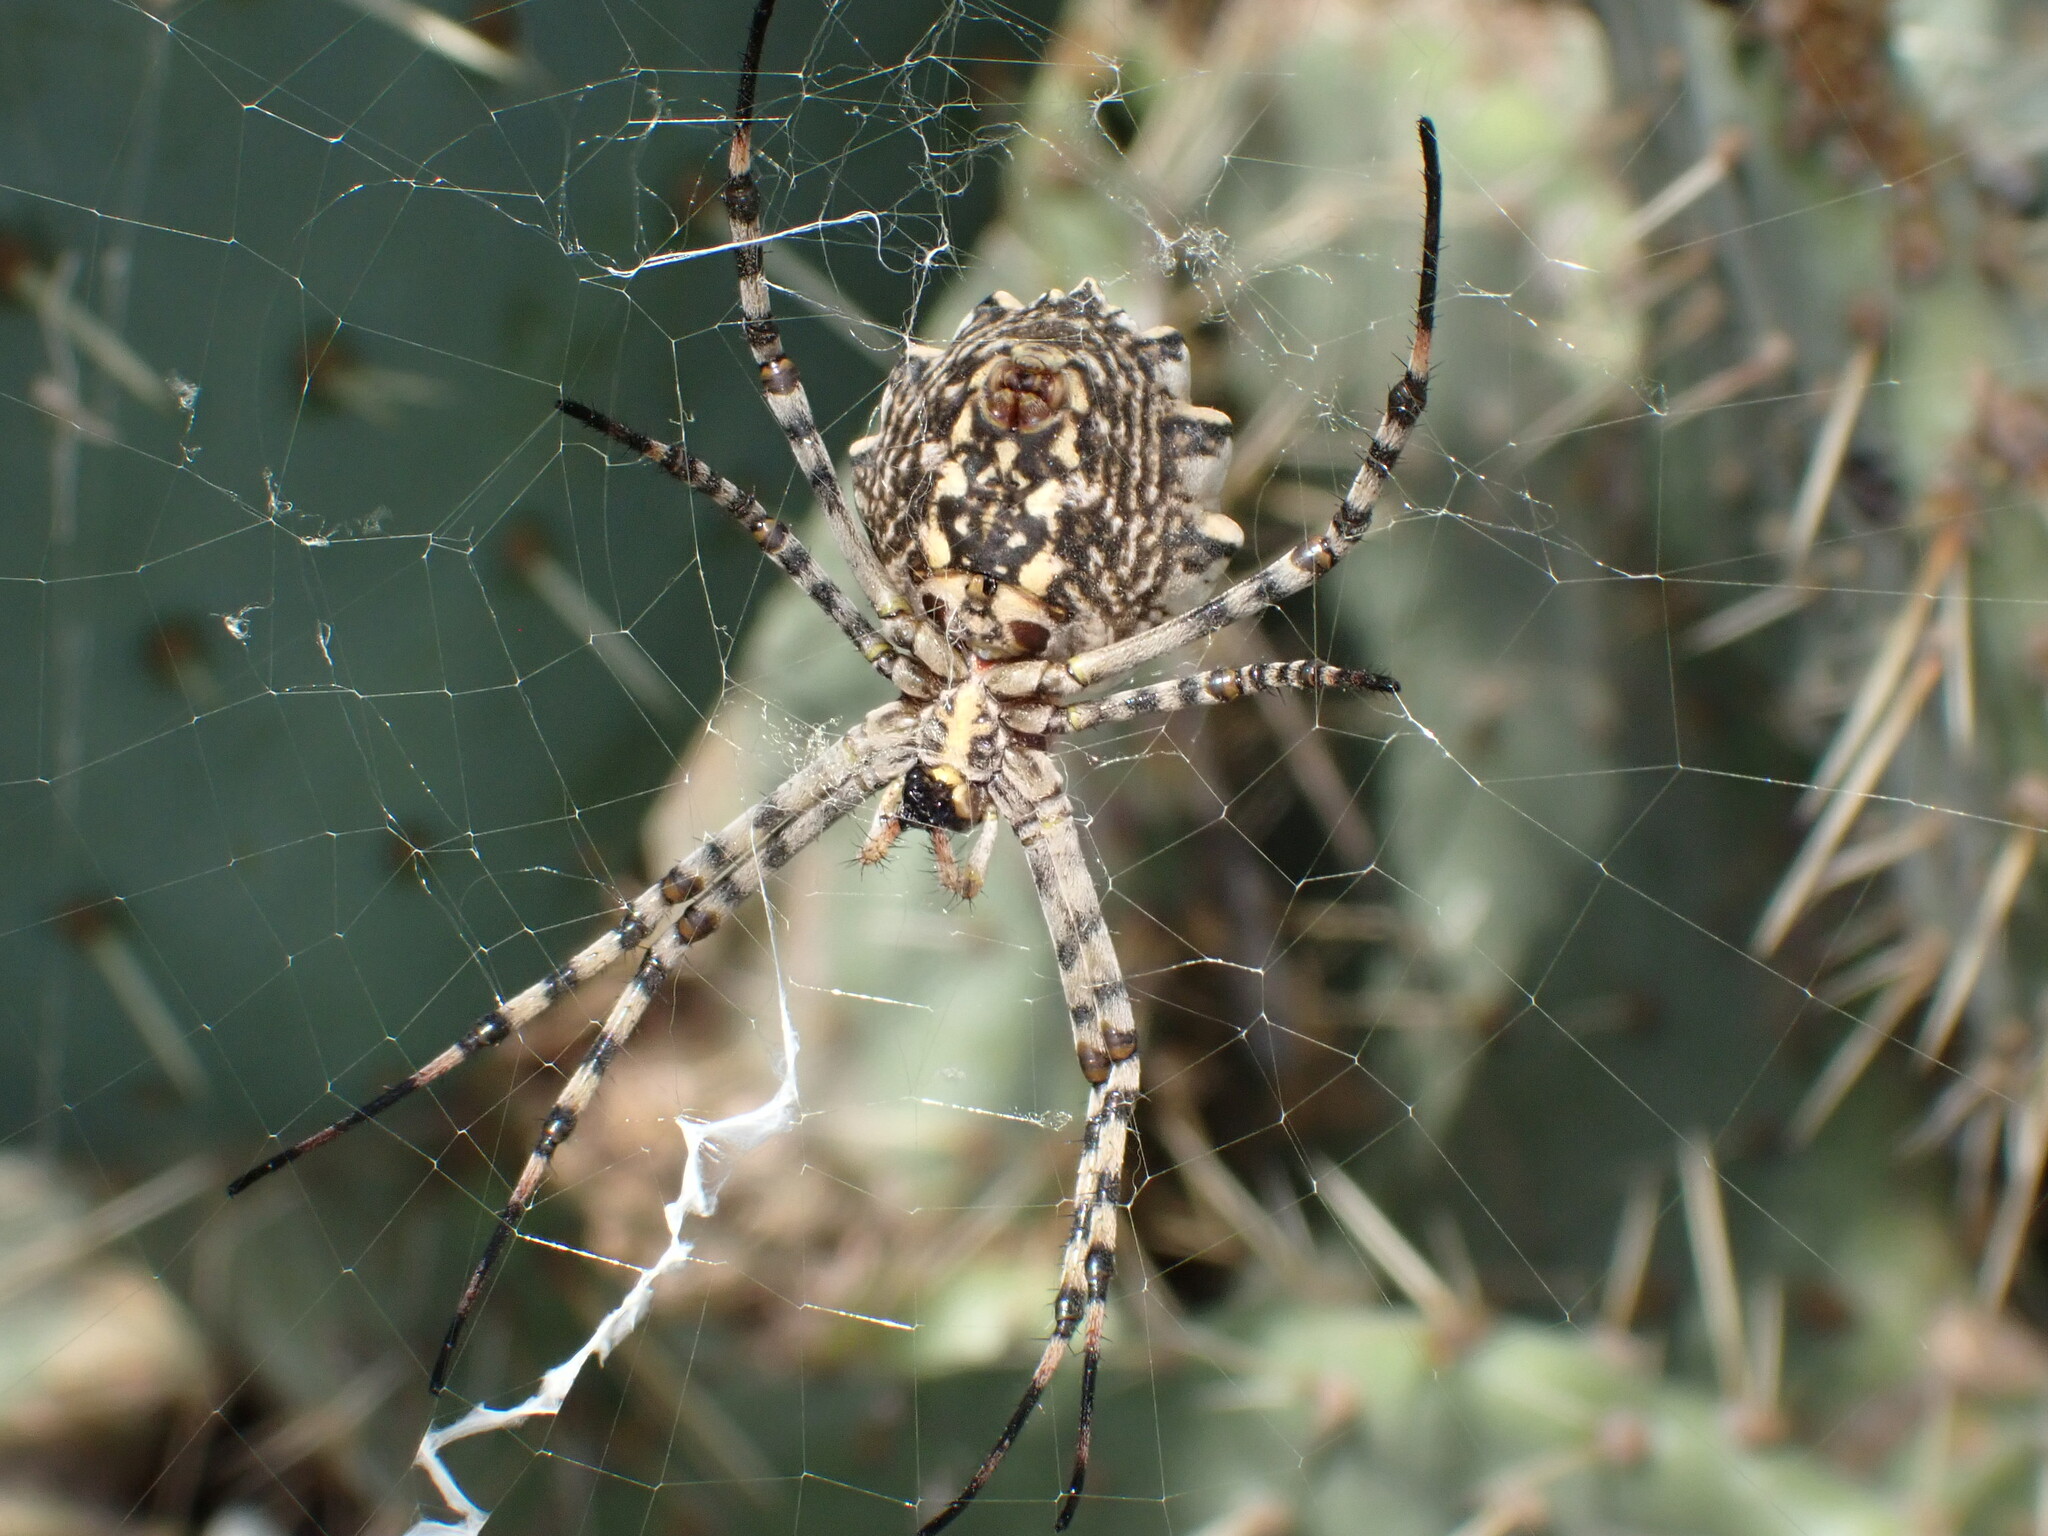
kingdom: Animalia
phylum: Arthropoda
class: Arachnida
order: Araneae
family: Araneidae
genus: Argiope
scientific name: Argiope lobata
